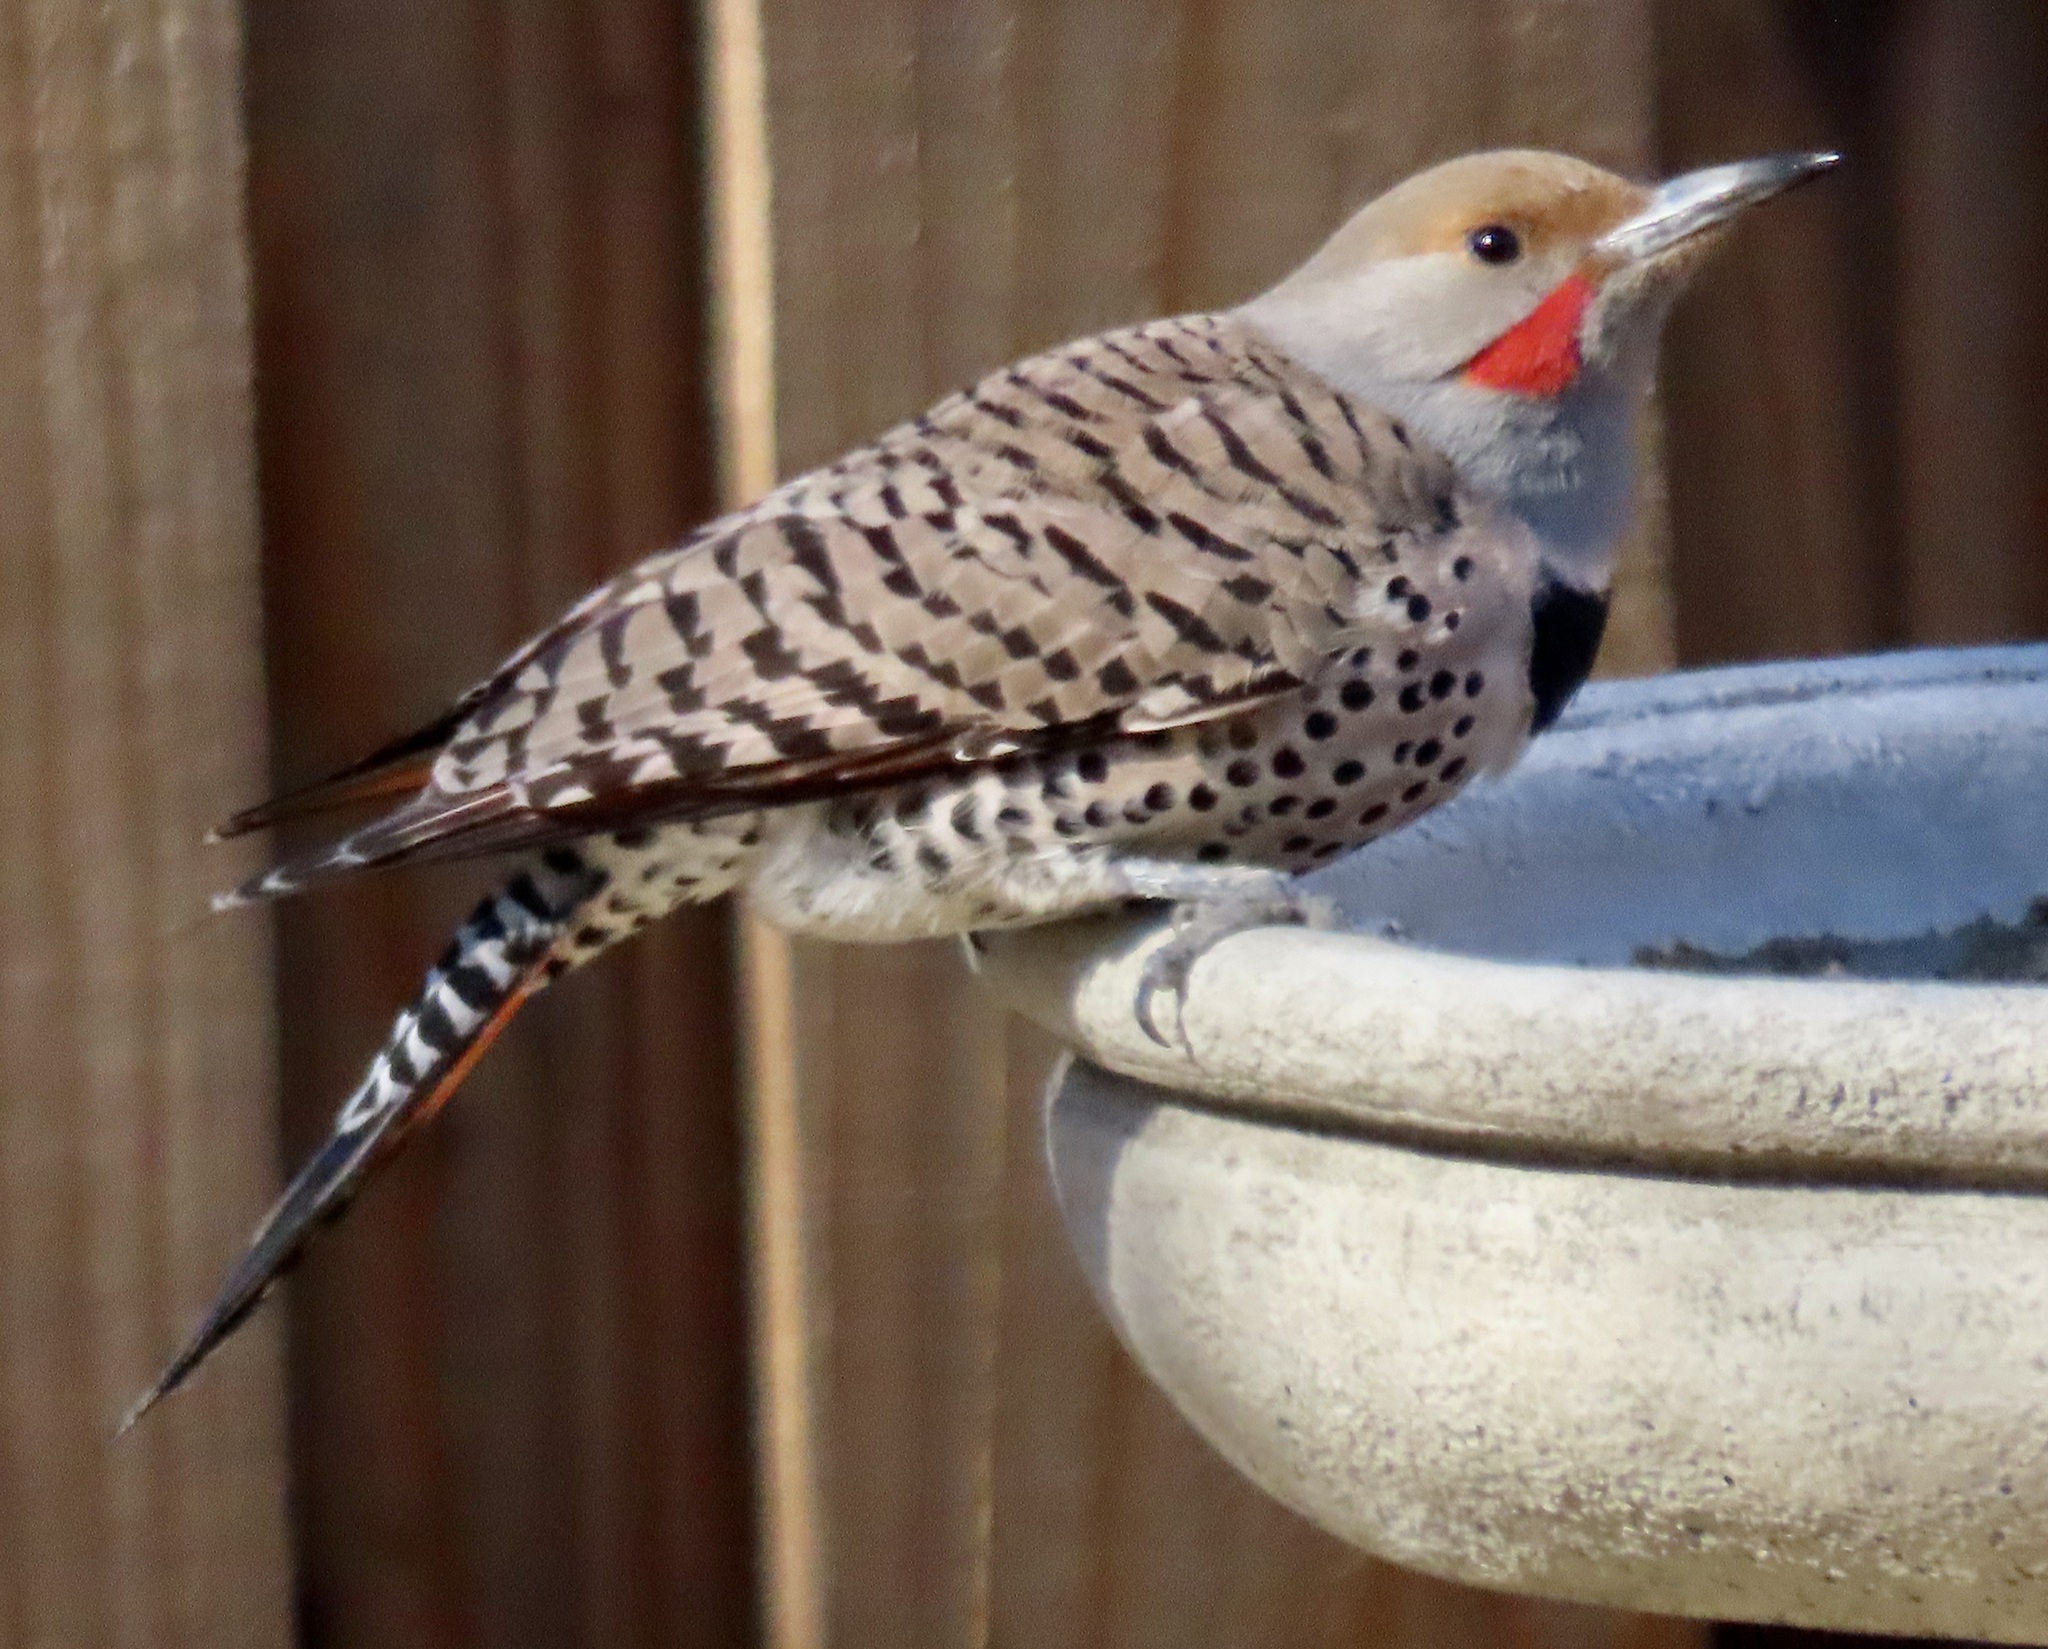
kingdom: Animalia
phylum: Chordata
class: Aves
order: Piciformes
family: Picidae
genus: Colaptes
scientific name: Colaptes auratus
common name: Northern flicker
